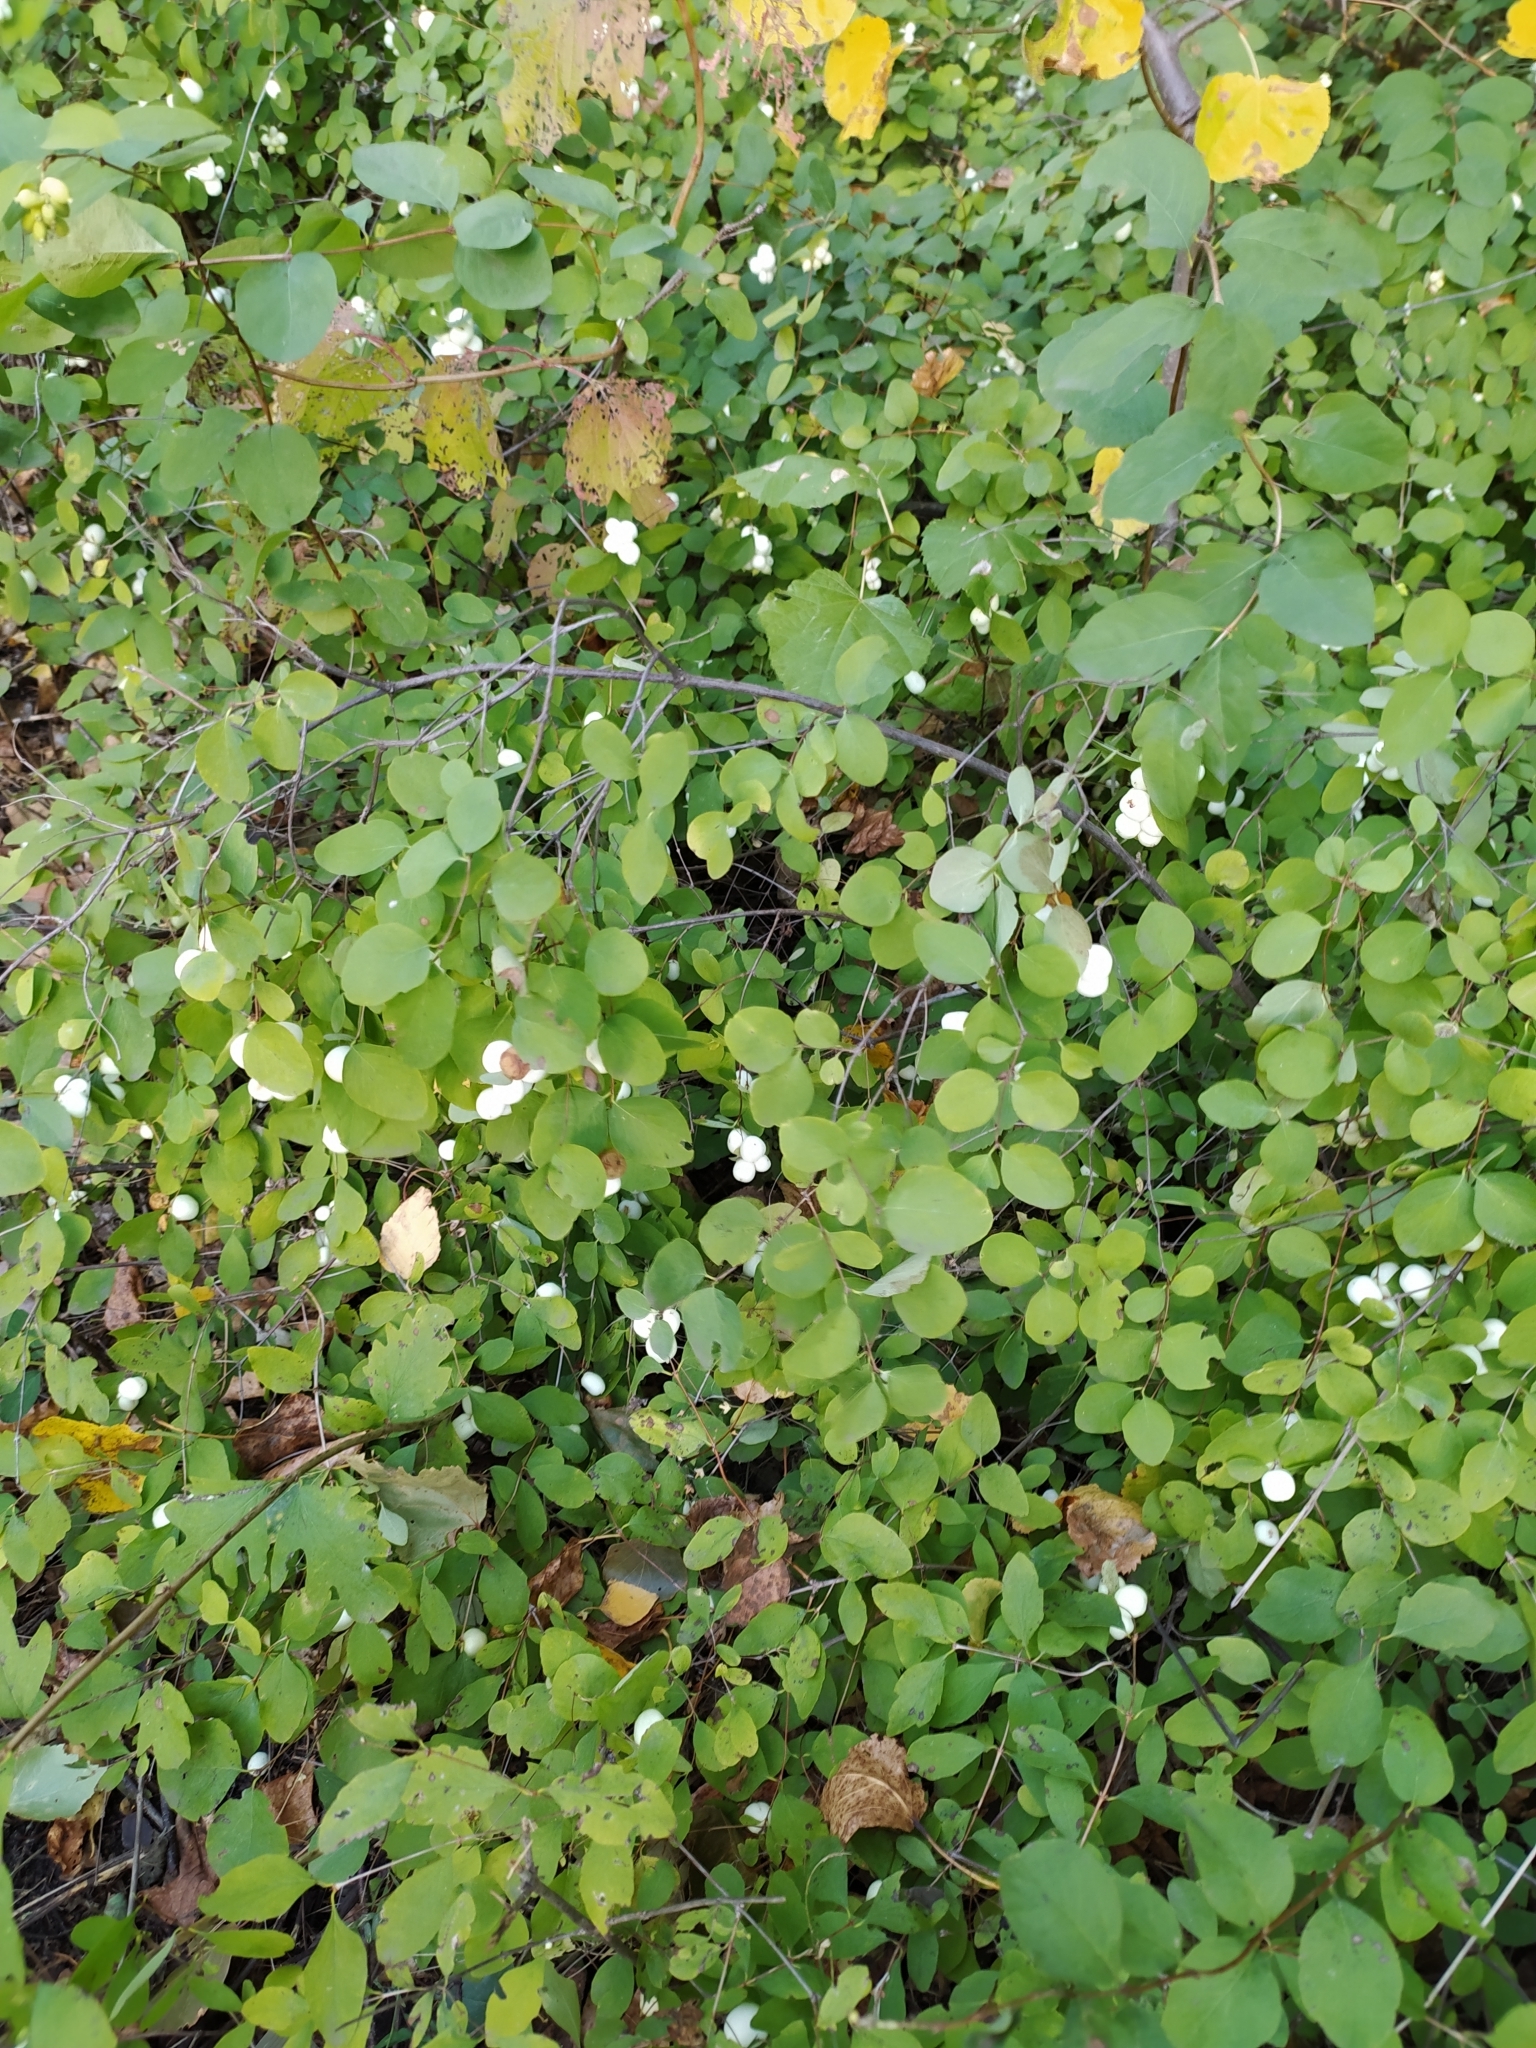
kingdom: Plantae
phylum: Tracheophyta
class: Magnoliopsida
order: Dipsacales
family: Caprifoliaceae
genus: Symphoricarpos
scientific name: Symphoricarpos albus
